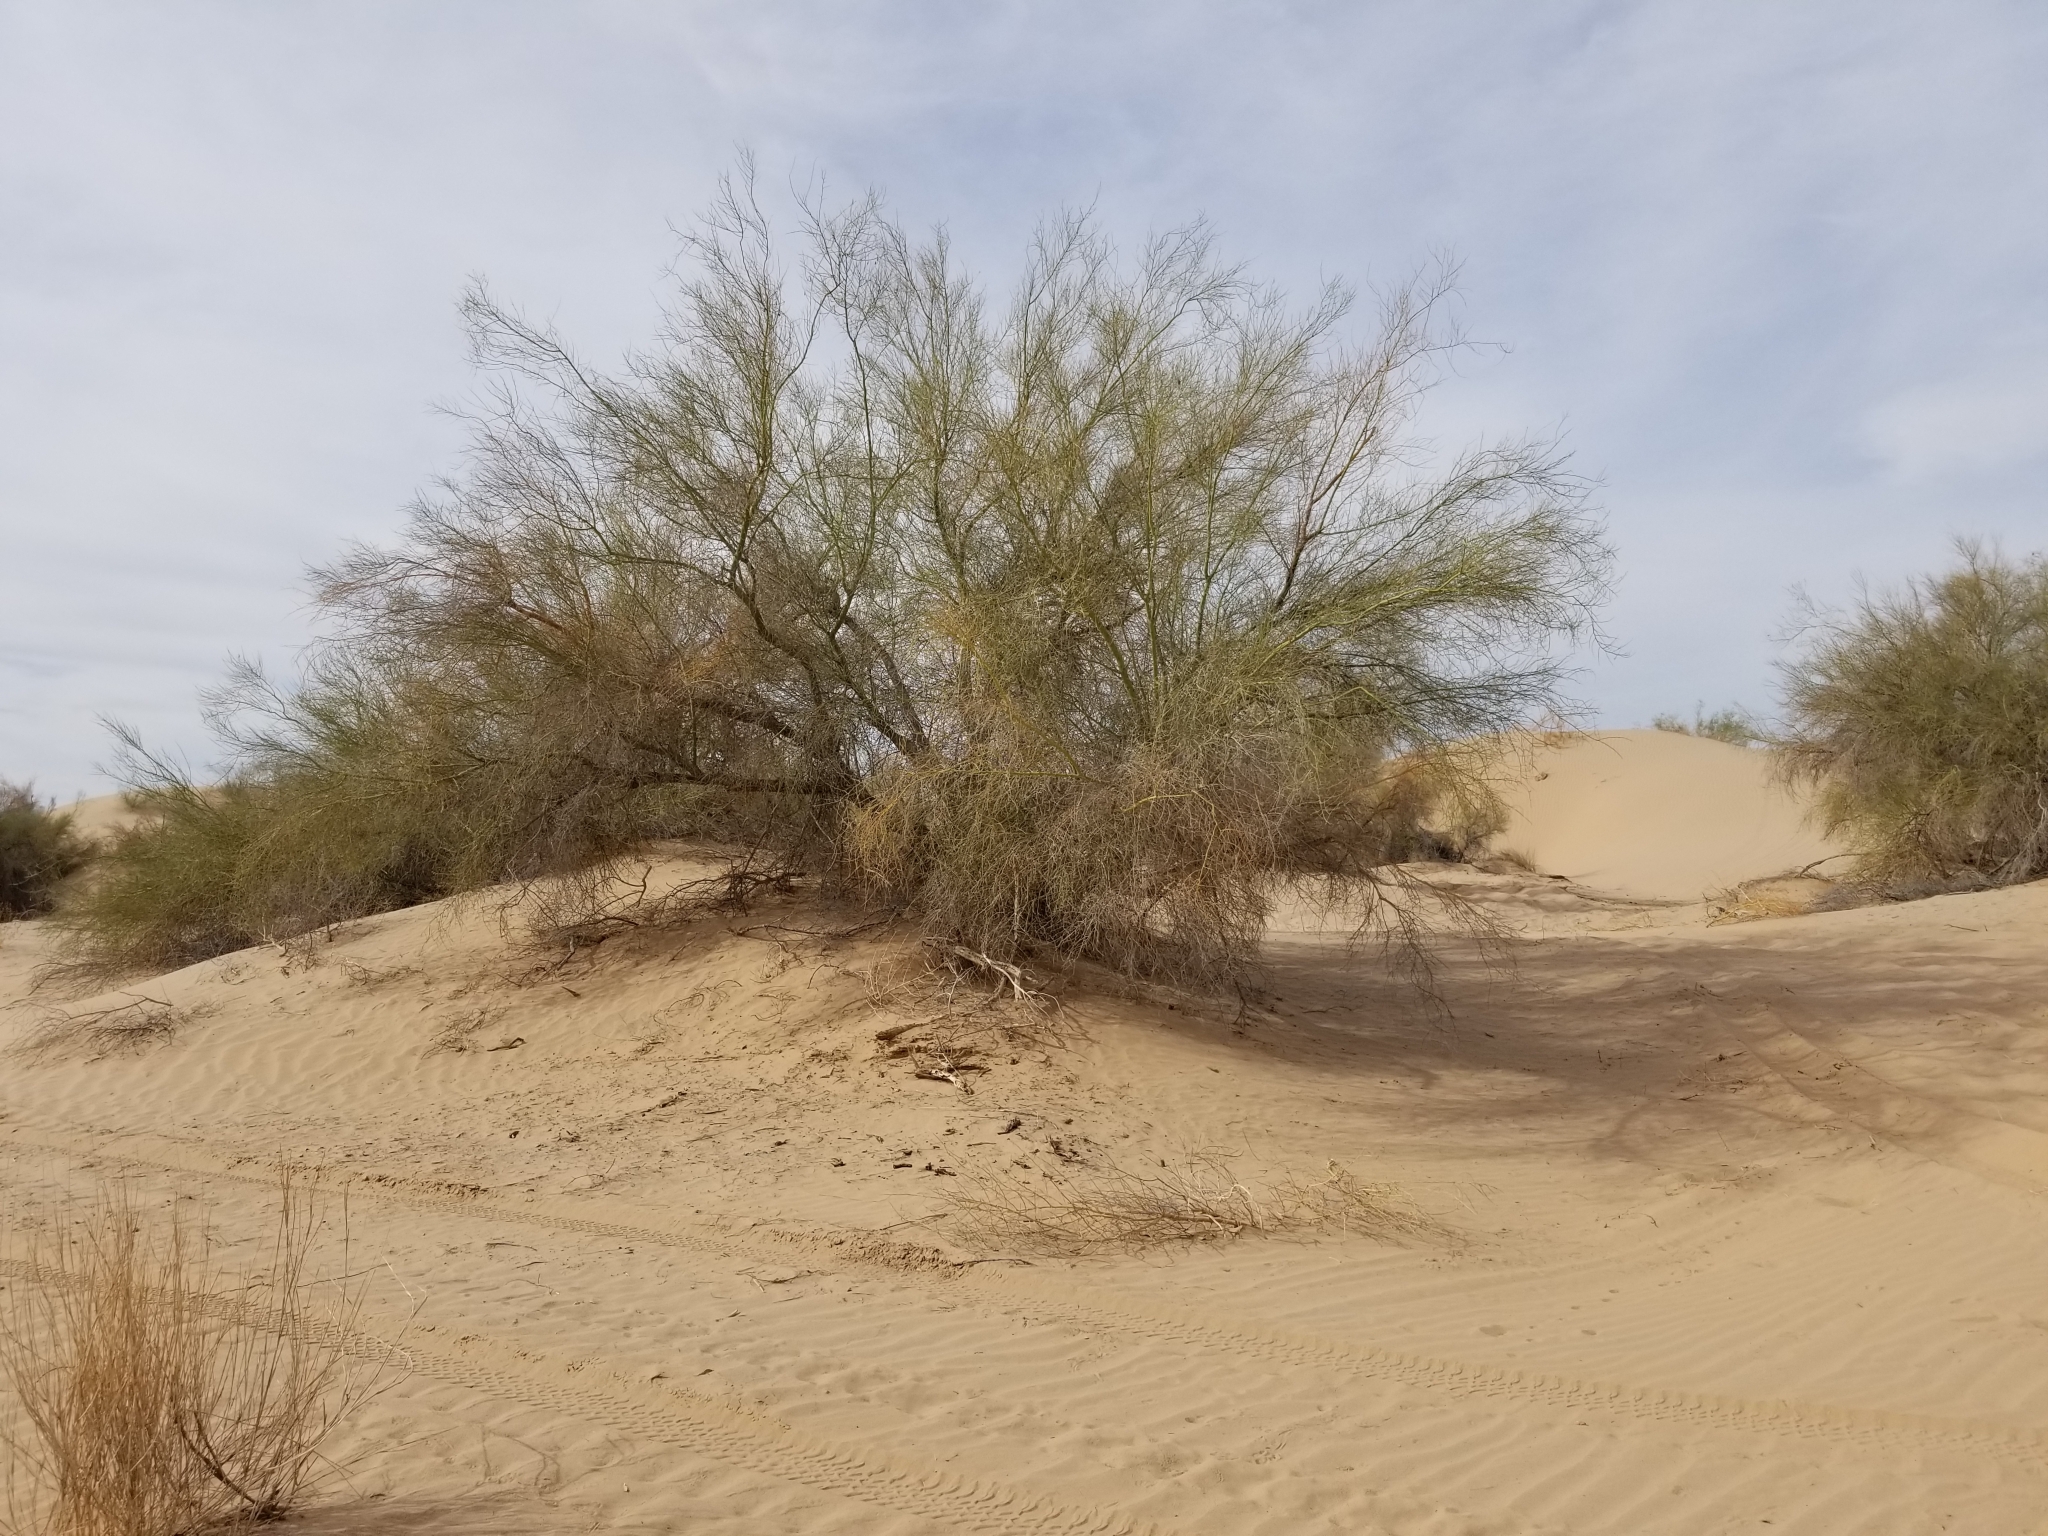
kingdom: Plantae
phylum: Tracheophyta
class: Magnoliopsida
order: Fabales
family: Fabaceae
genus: Parkinsonia
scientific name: Parkinsonia florida
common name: Blue paloverde
